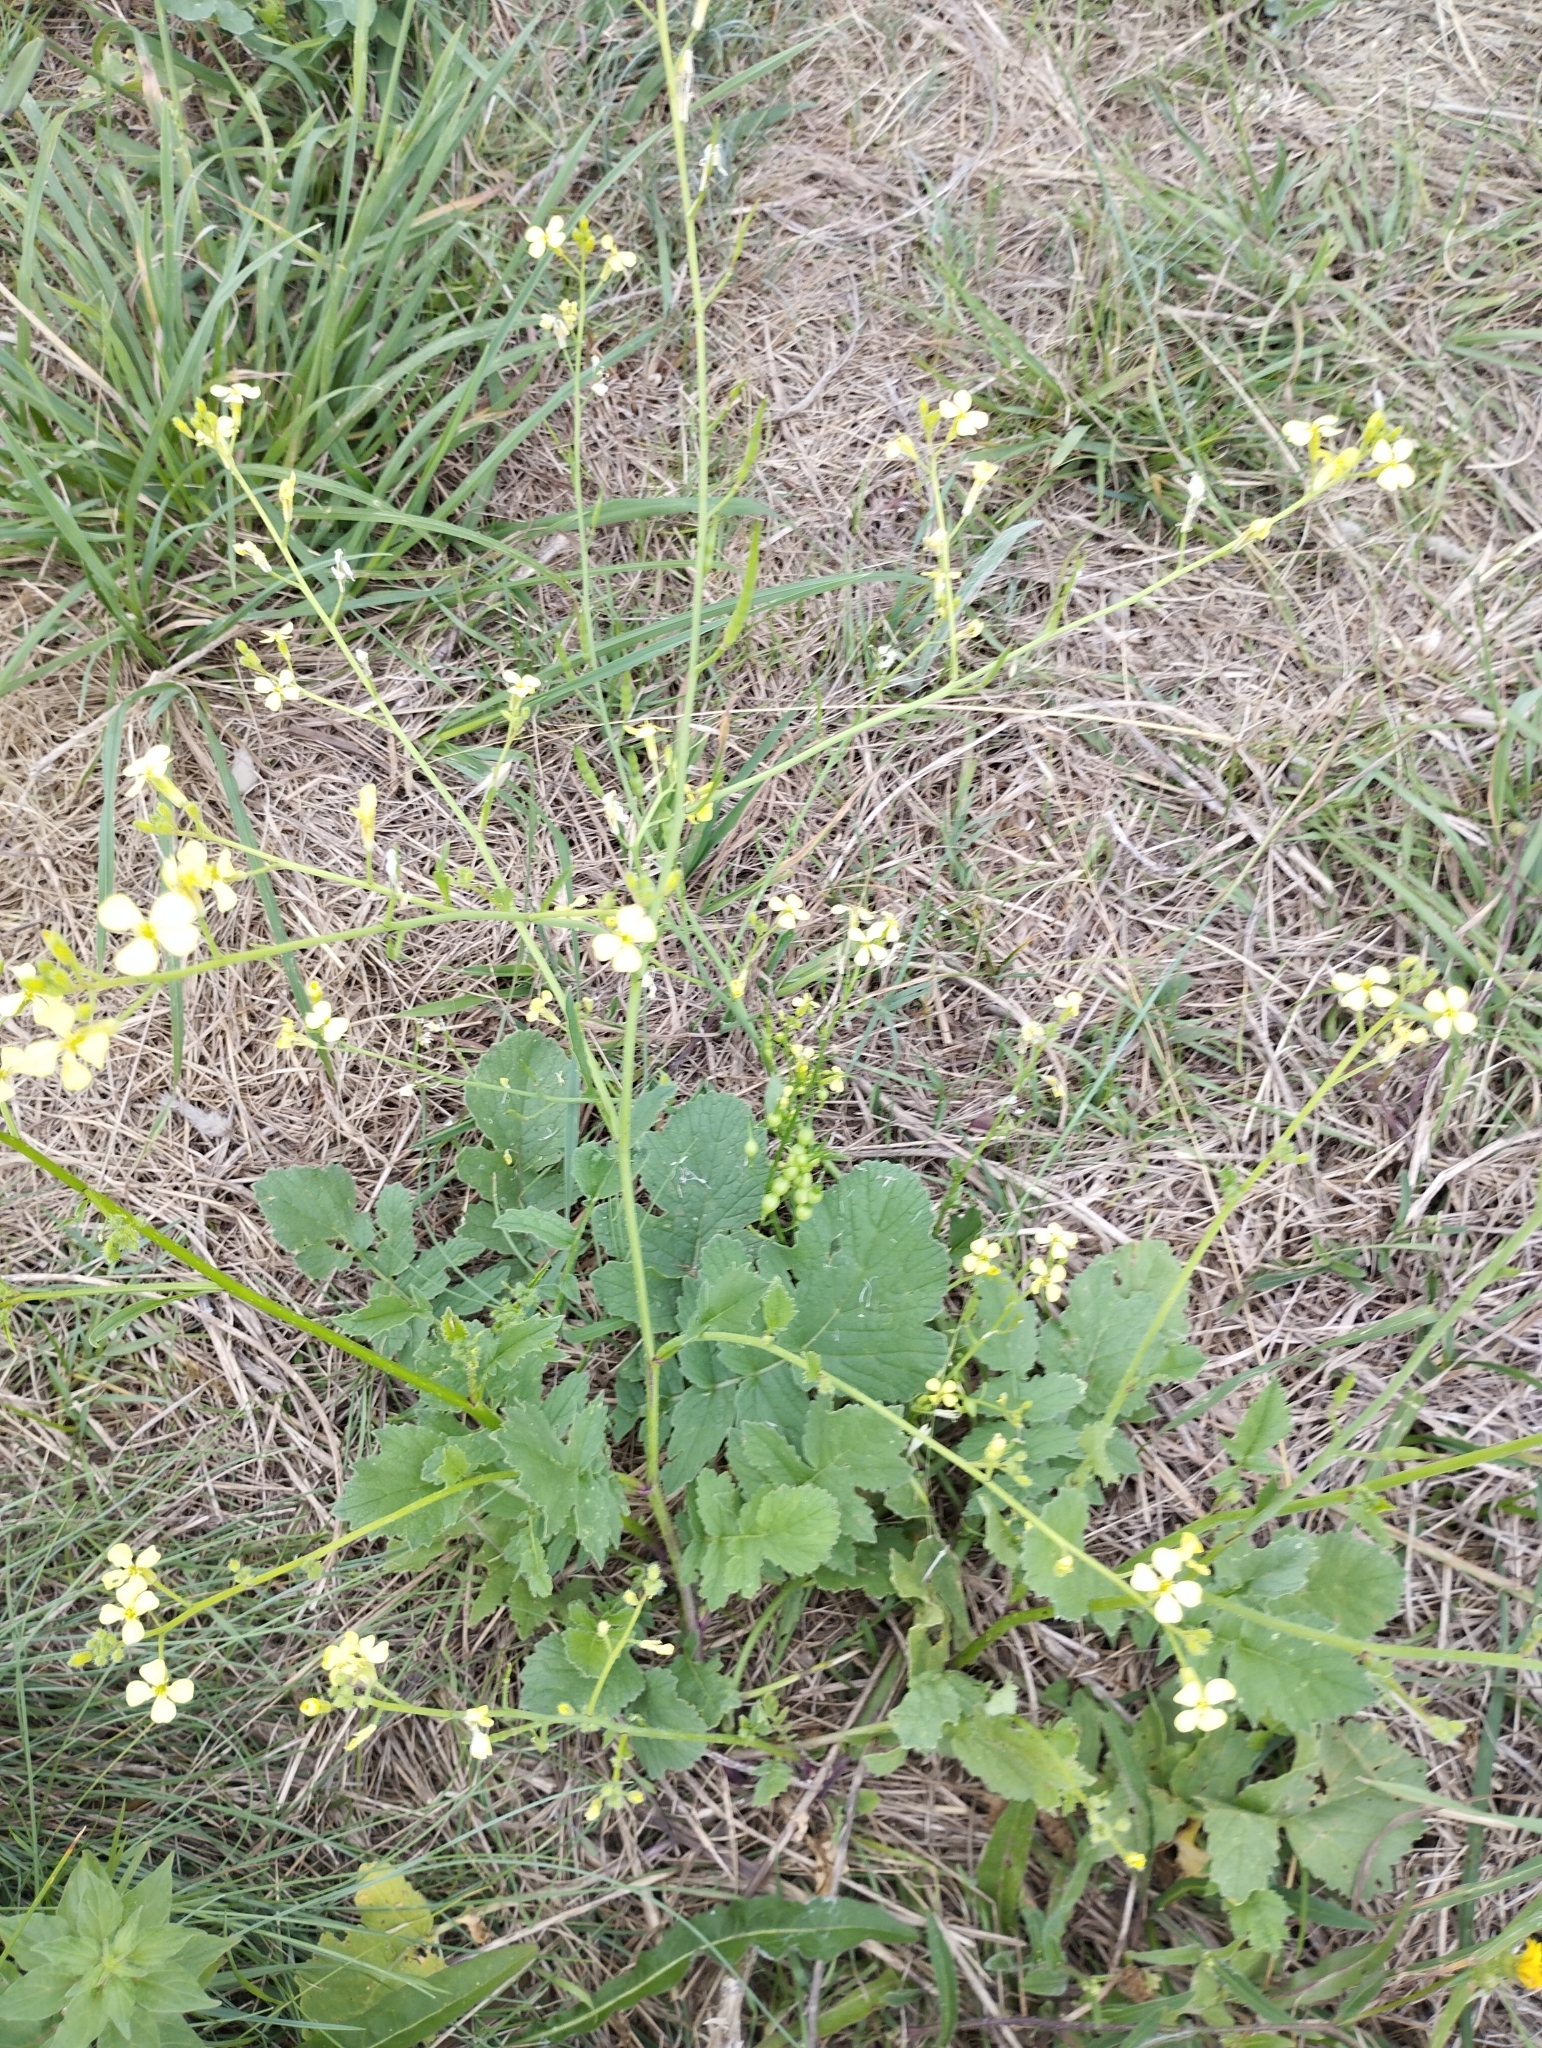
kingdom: Plantae
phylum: Tracheophyta
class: Magnoliopsida
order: Brassicales
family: Brassicaceae
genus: Raphanus
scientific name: Raphanus raphanistrum
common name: Wild radish
